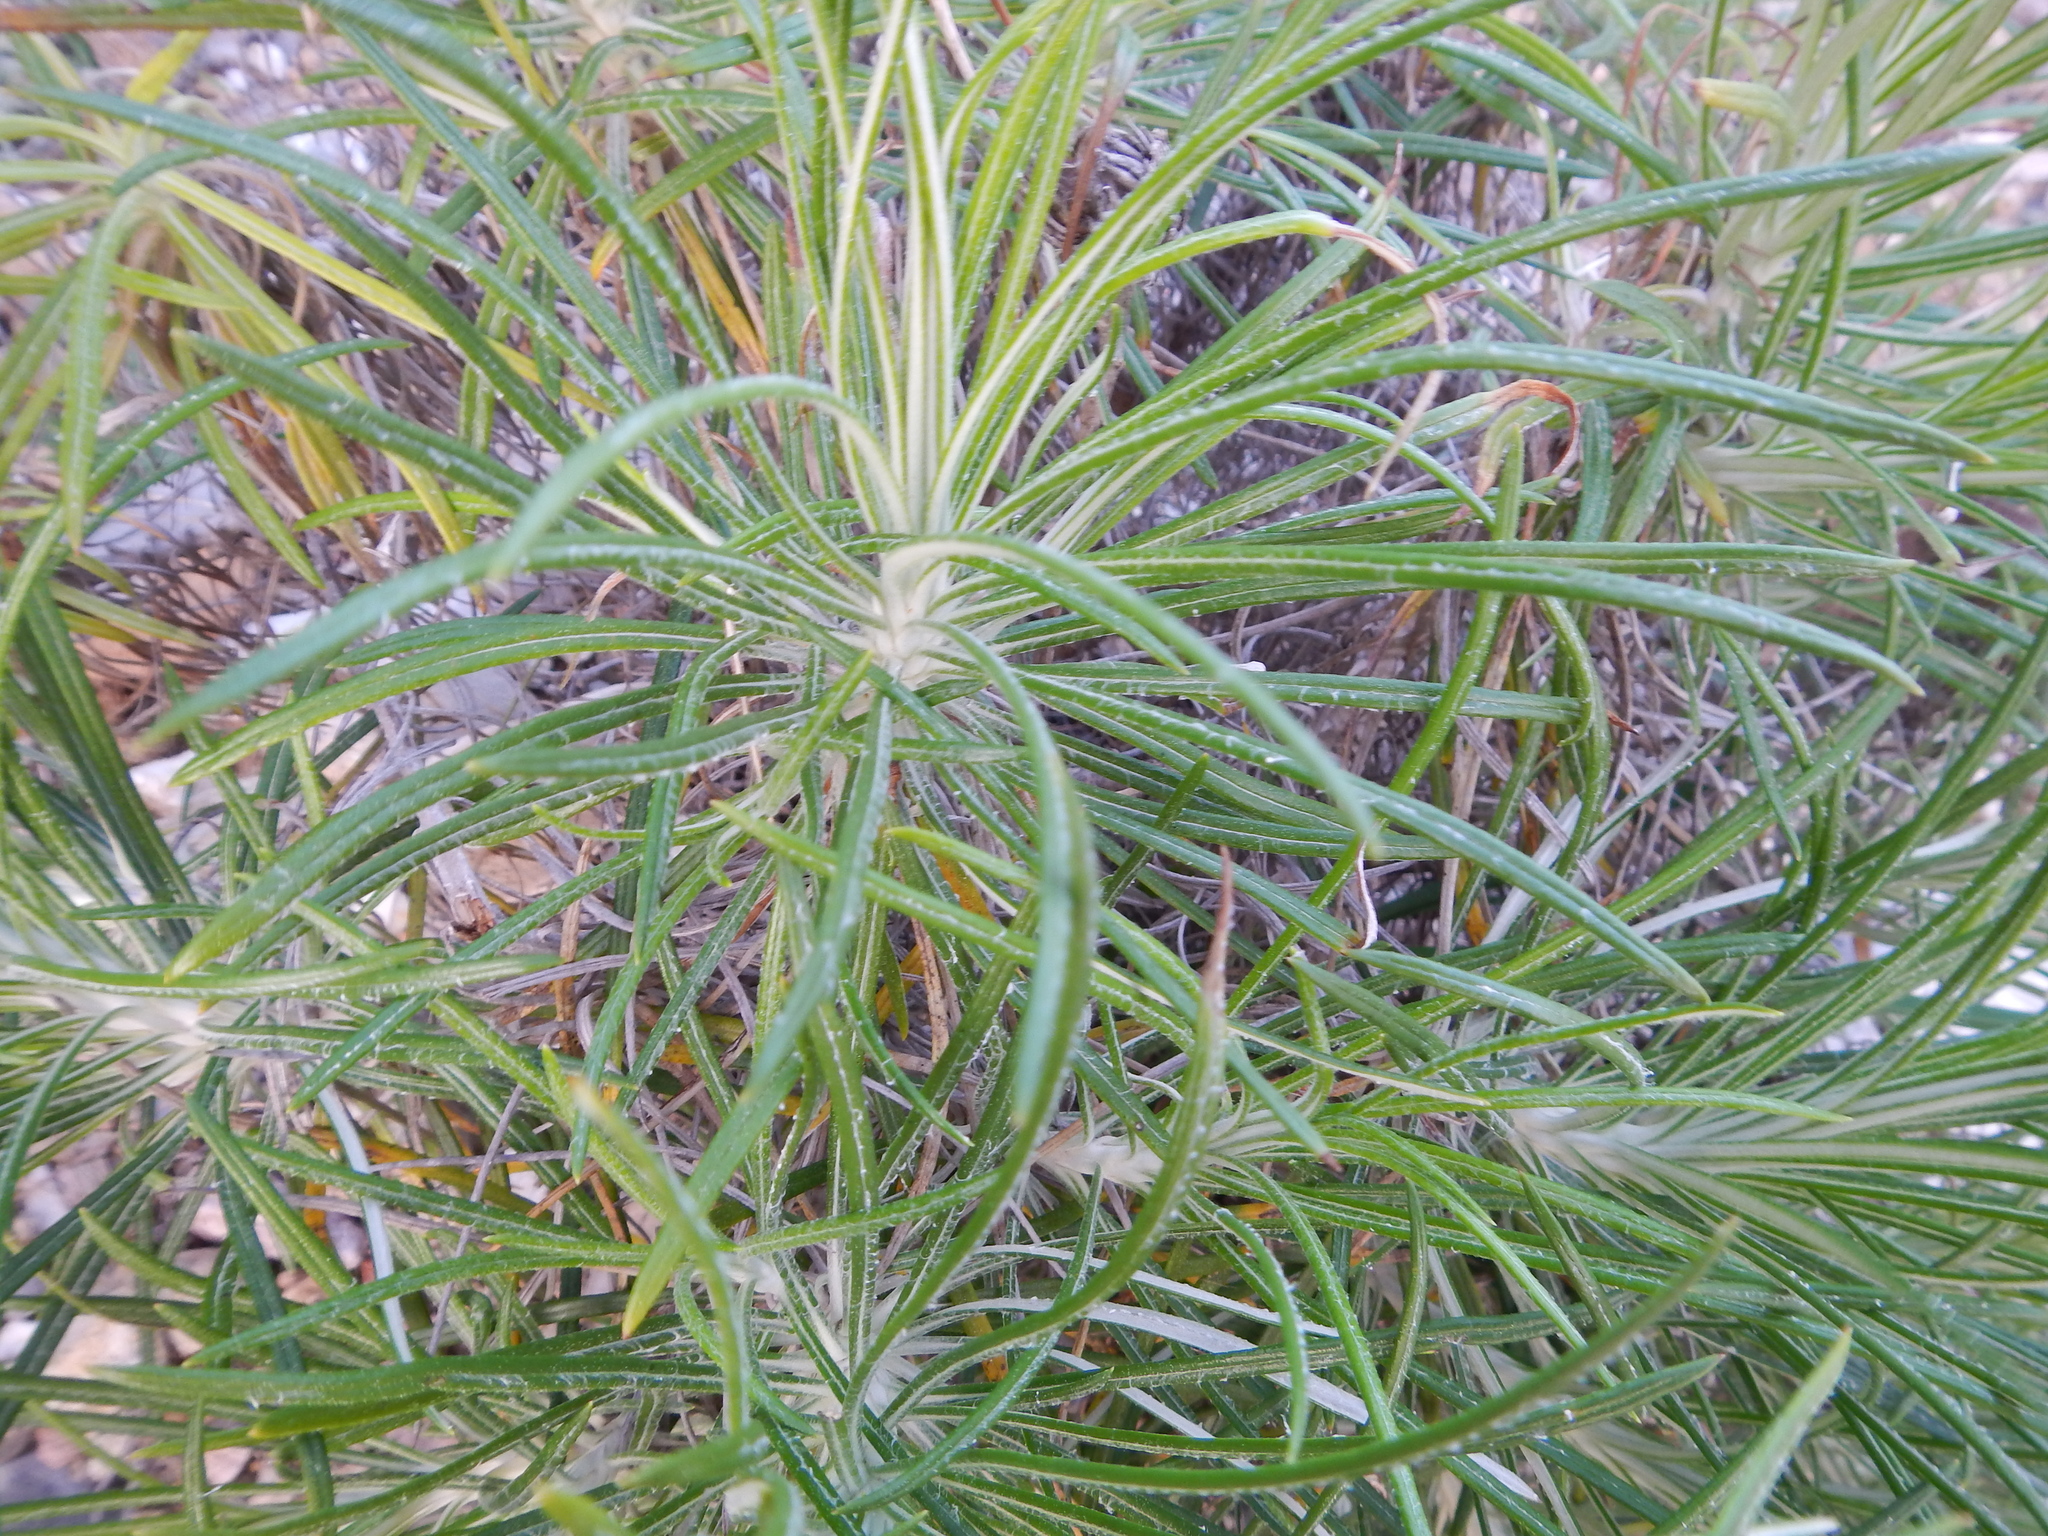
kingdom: Plantae
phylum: Tracheophyta
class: Magnoliopsida
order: Asterales
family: Asteraceae
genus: Ptilostemon
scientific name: Ptilostemon chamaepeuce
